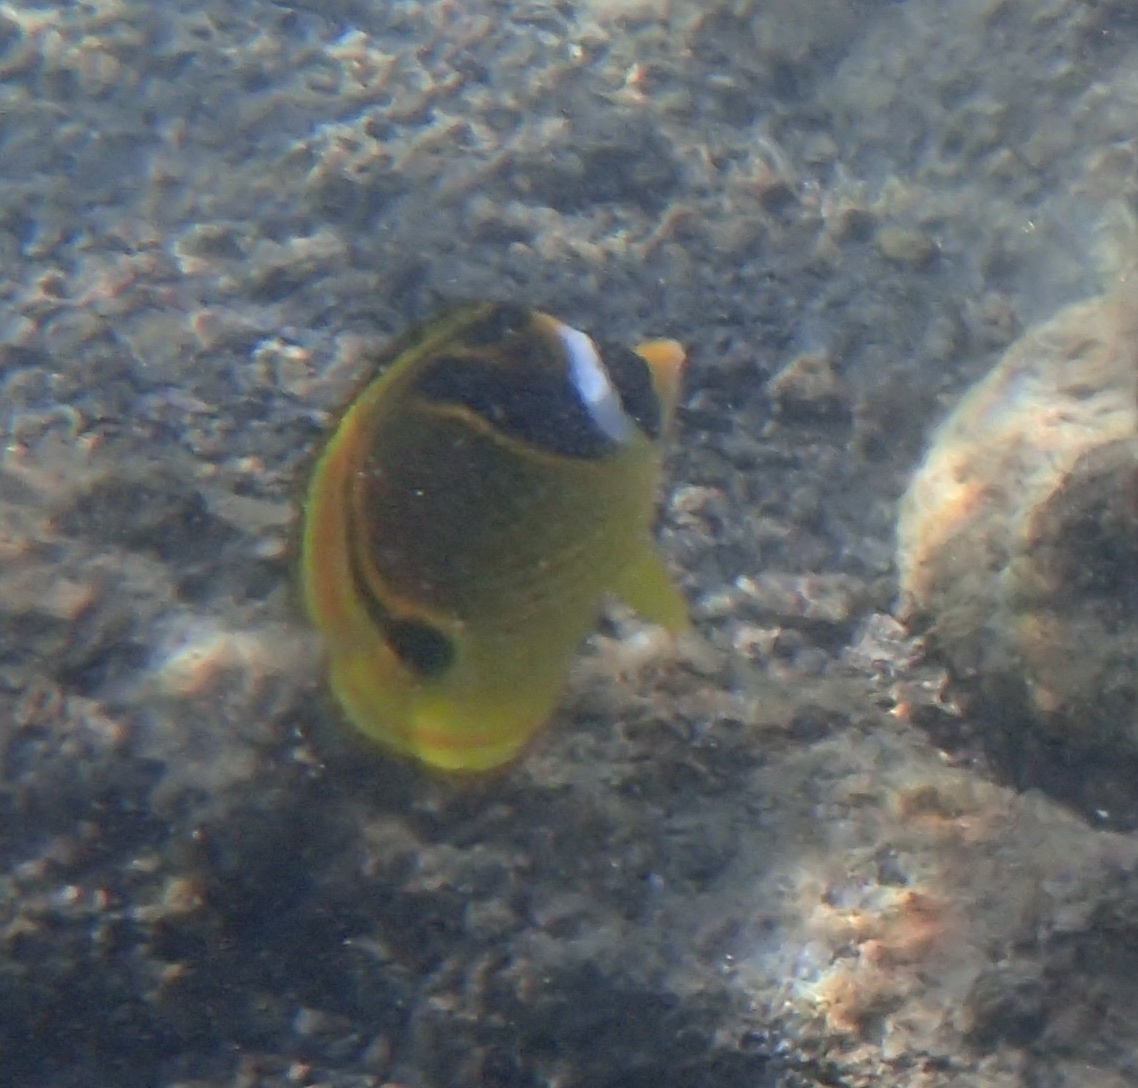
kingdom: Animalia
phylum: Chordata
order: Perciformes
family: Chaetodontidae
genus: Chaetodon
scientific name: Chaetodon lunula
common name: Raccoon butterflyfish
